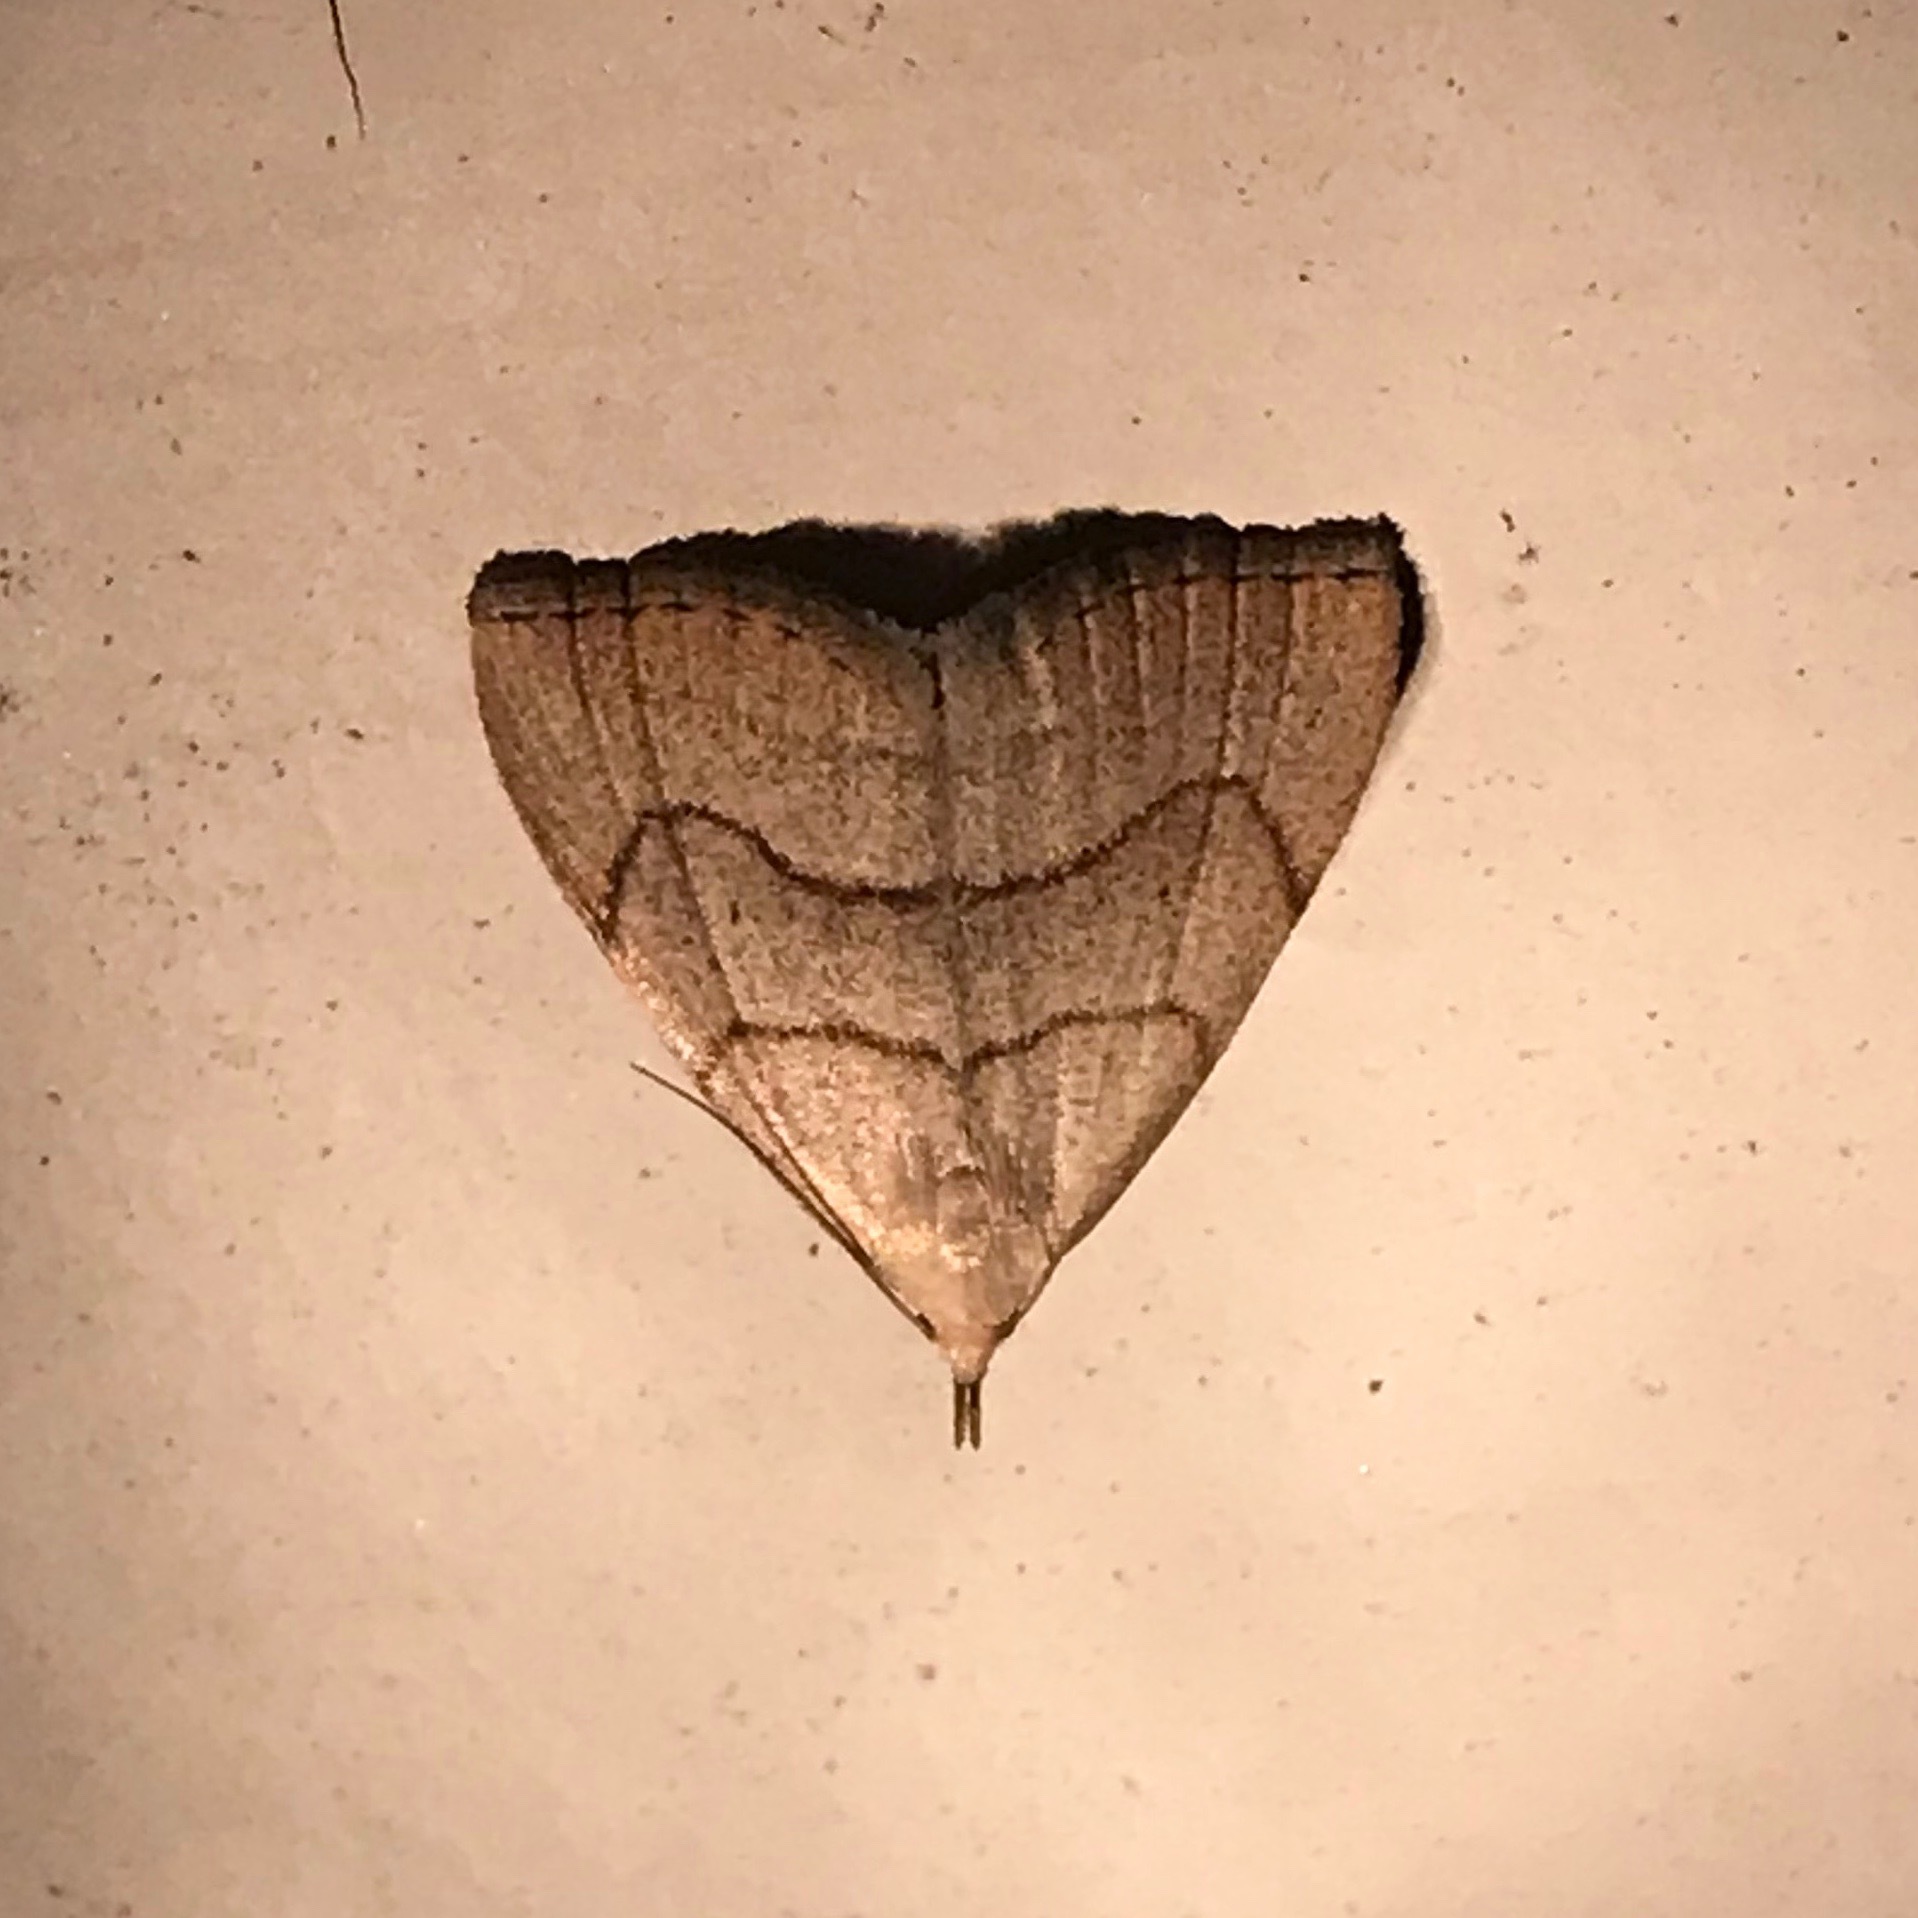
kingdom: Animalia
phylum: Arthropoda
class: Insecta
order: Lepidoptera
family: Erebidae
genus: Macrochilo
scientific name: Macrochilo litophora
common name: Brown-lined owlet
